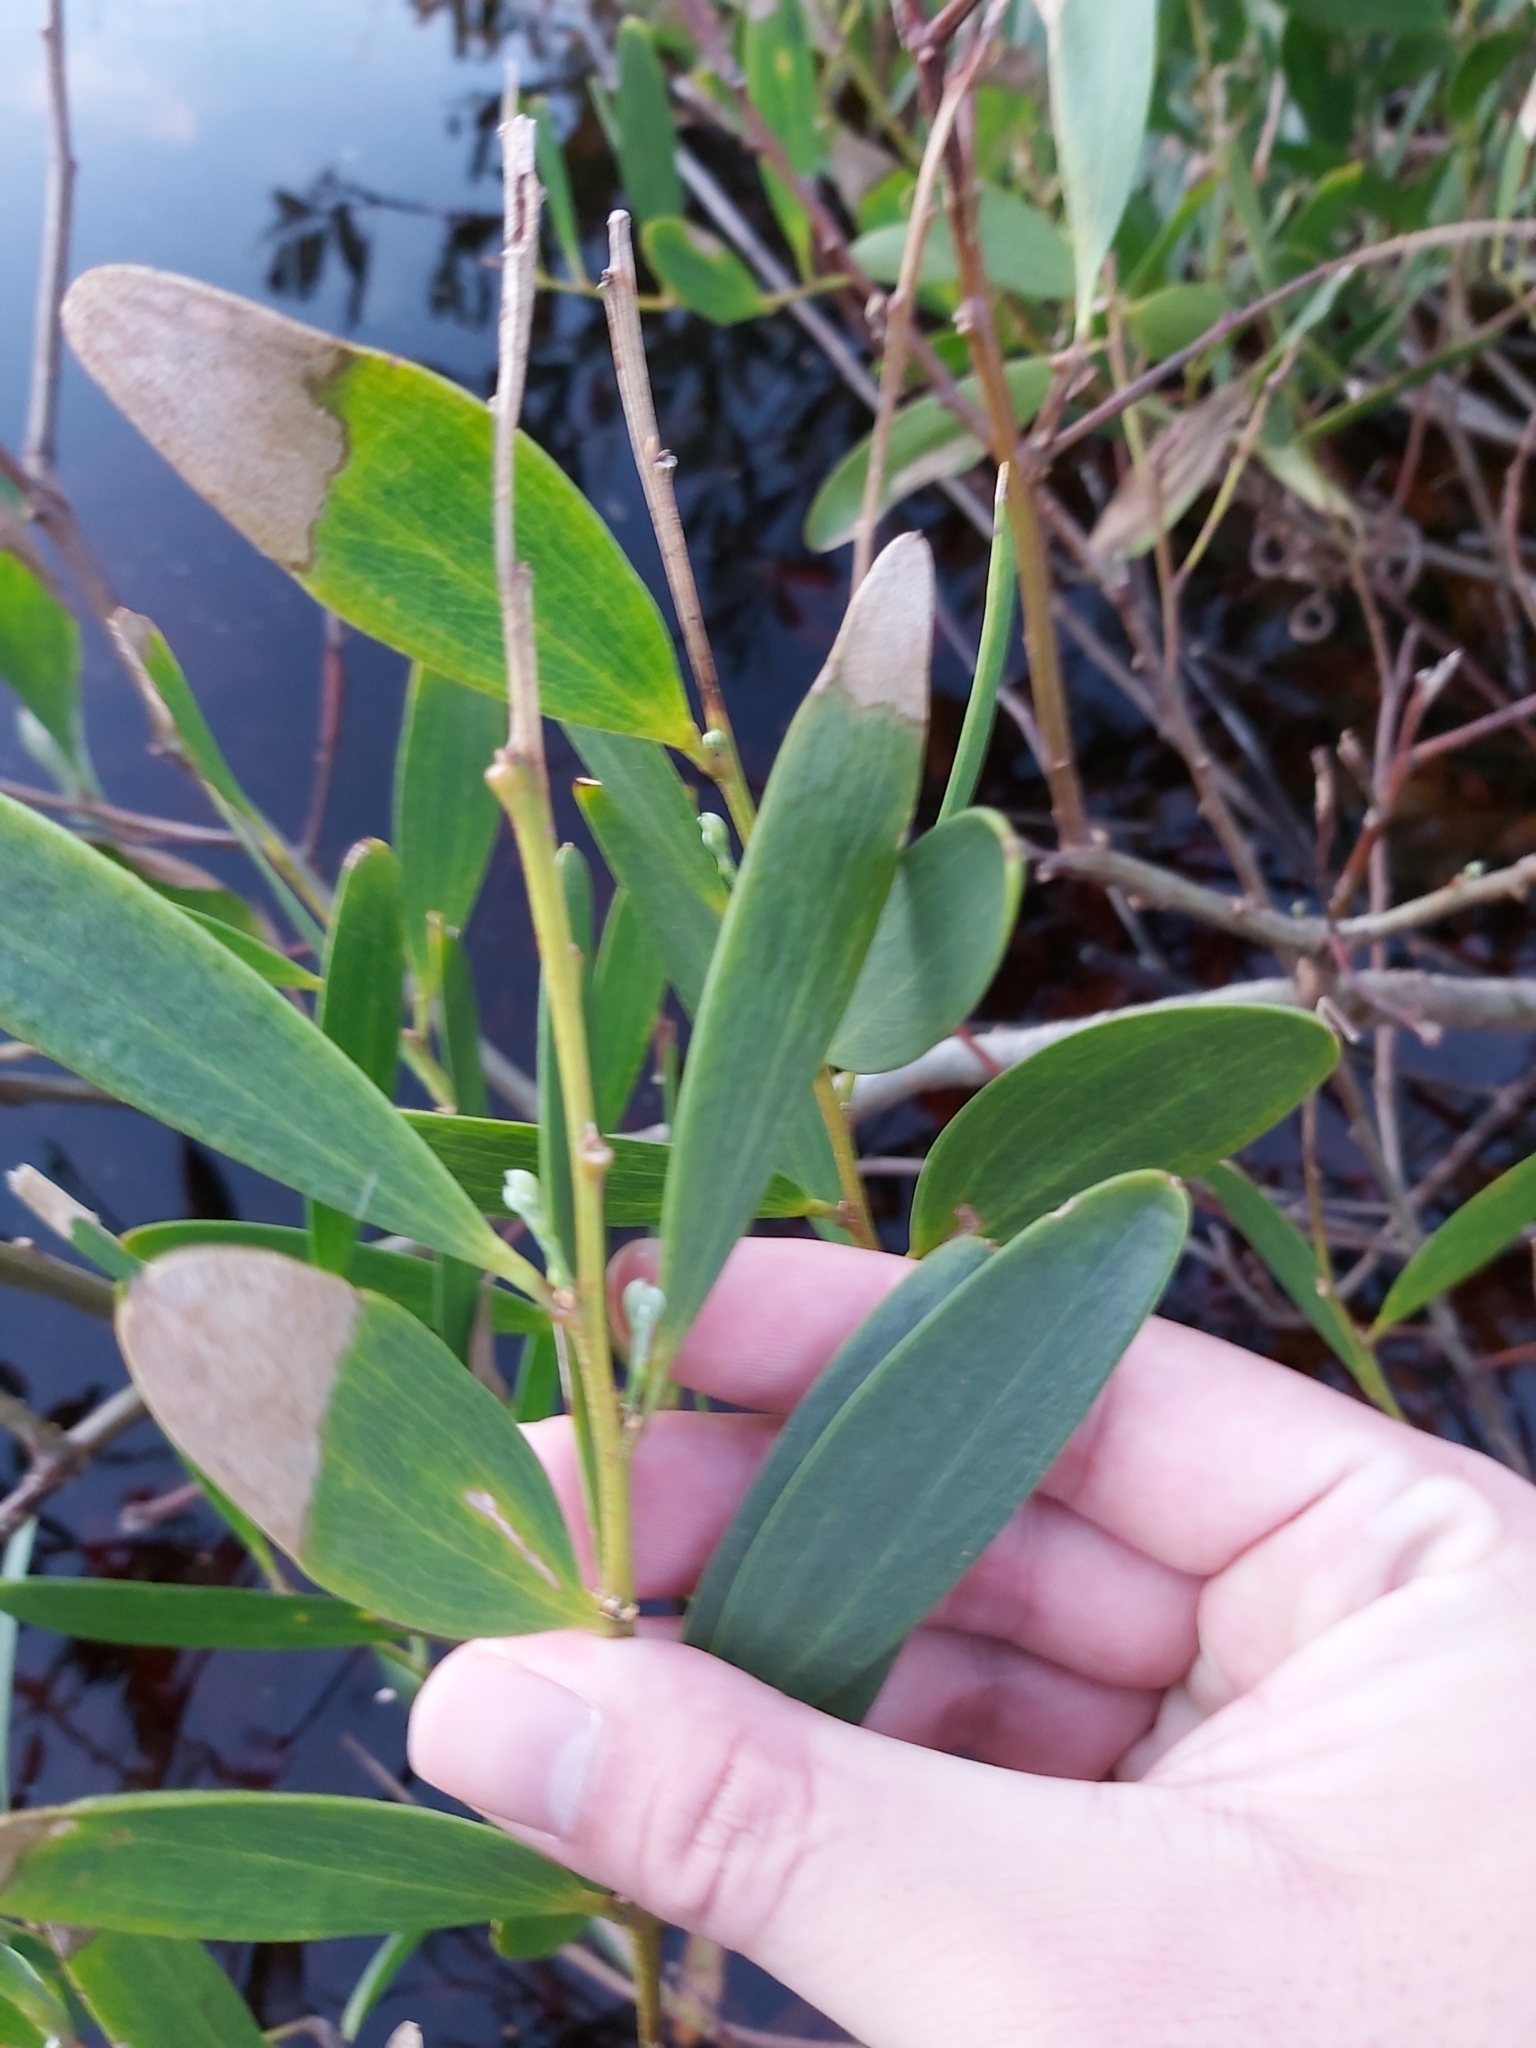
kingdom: Plantae
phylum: Tracheophyta
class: Magnoliopsida
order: Fabales
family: Fabaceae
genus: Acacia
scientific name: Acacia longifolia
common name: Sydney golden wattle
